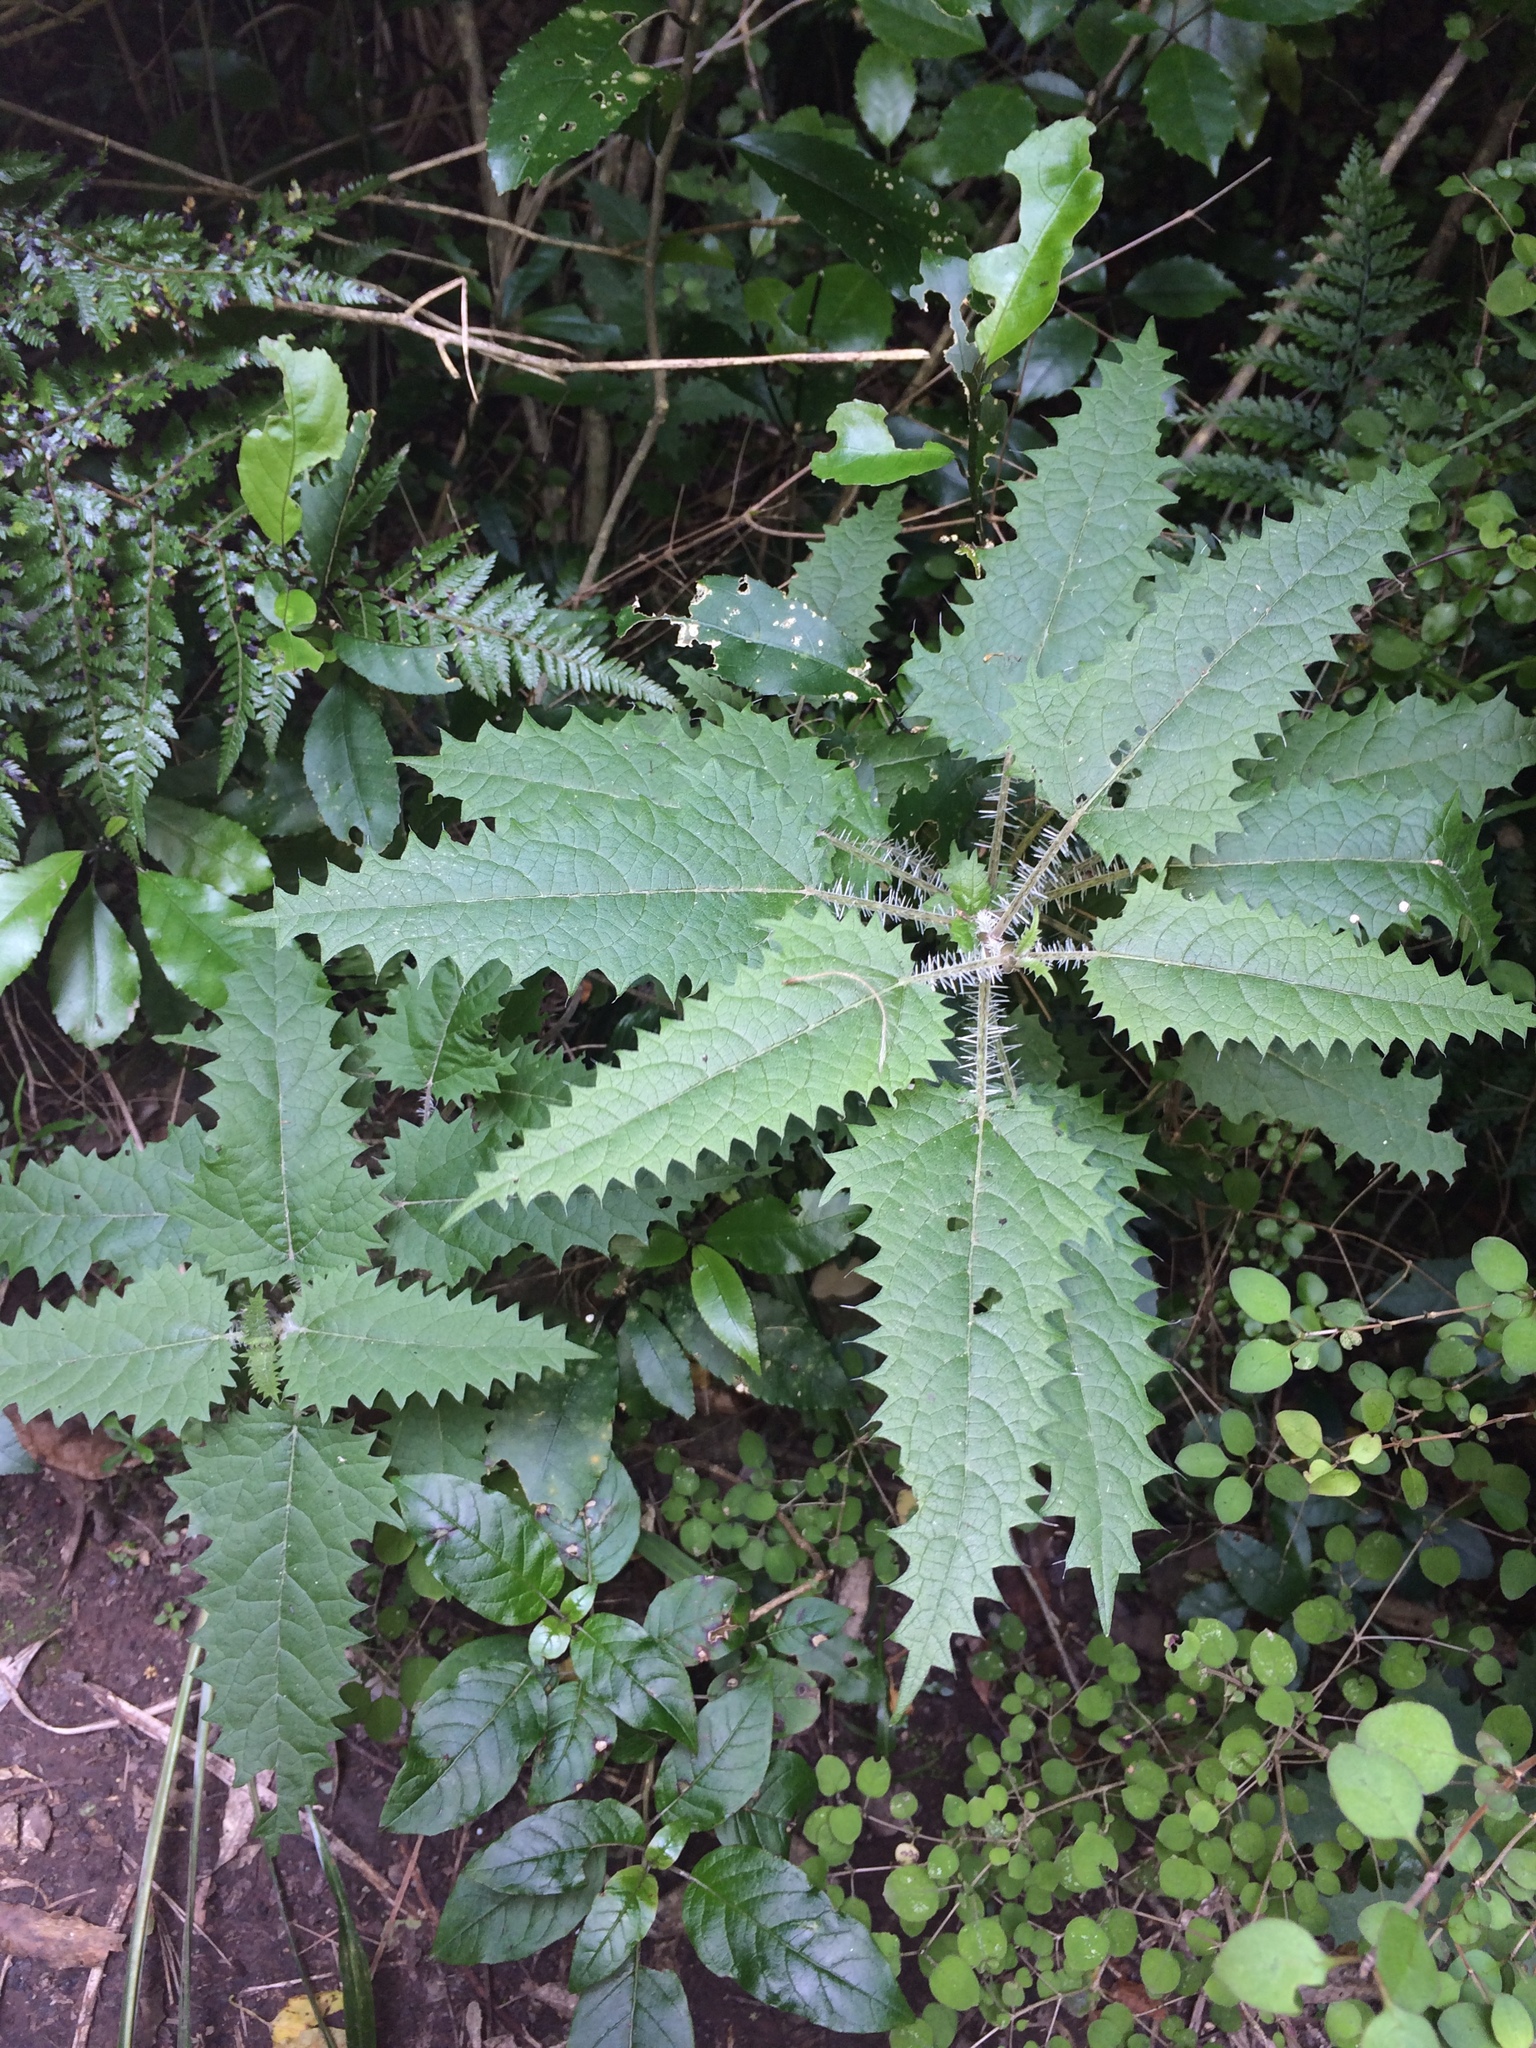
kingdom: Plantae
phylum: Tracheophyta
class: Magnoliopsida
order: Rosales
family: Urticaceae
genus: Urtica
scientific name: Urtica ferox
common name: Tree nettle
